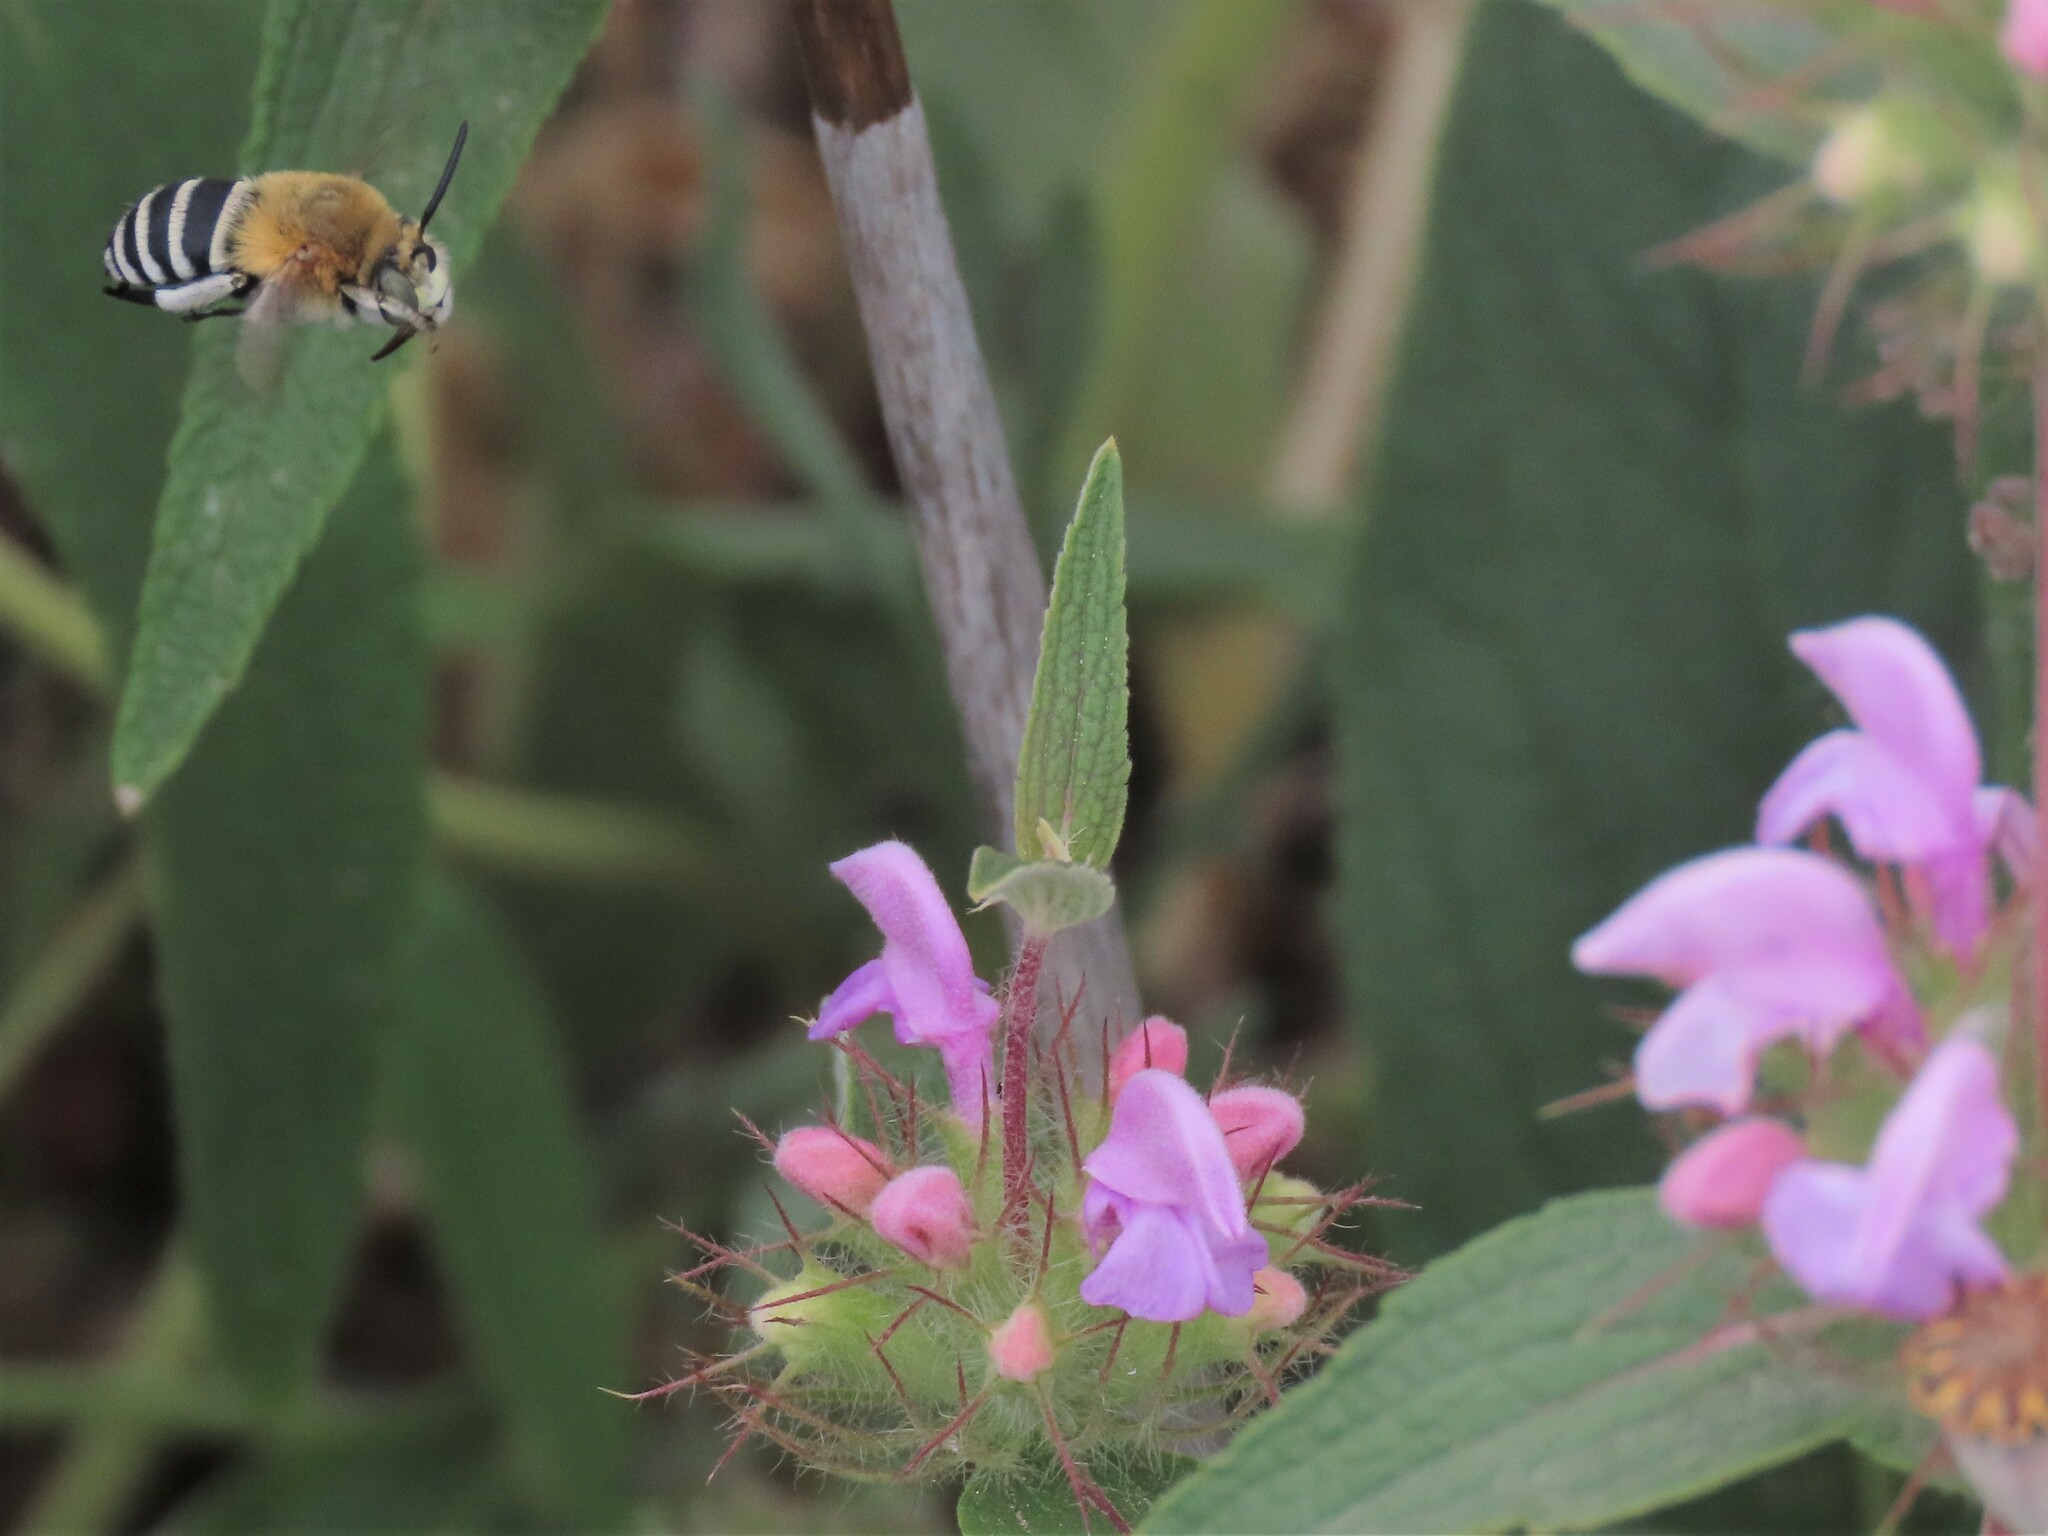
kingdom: Animalia
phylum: Arthropoda
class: Insecta
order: Hymenoptera
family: Apidae
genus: Amegilla
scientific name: Amegilla quadrifasciata
